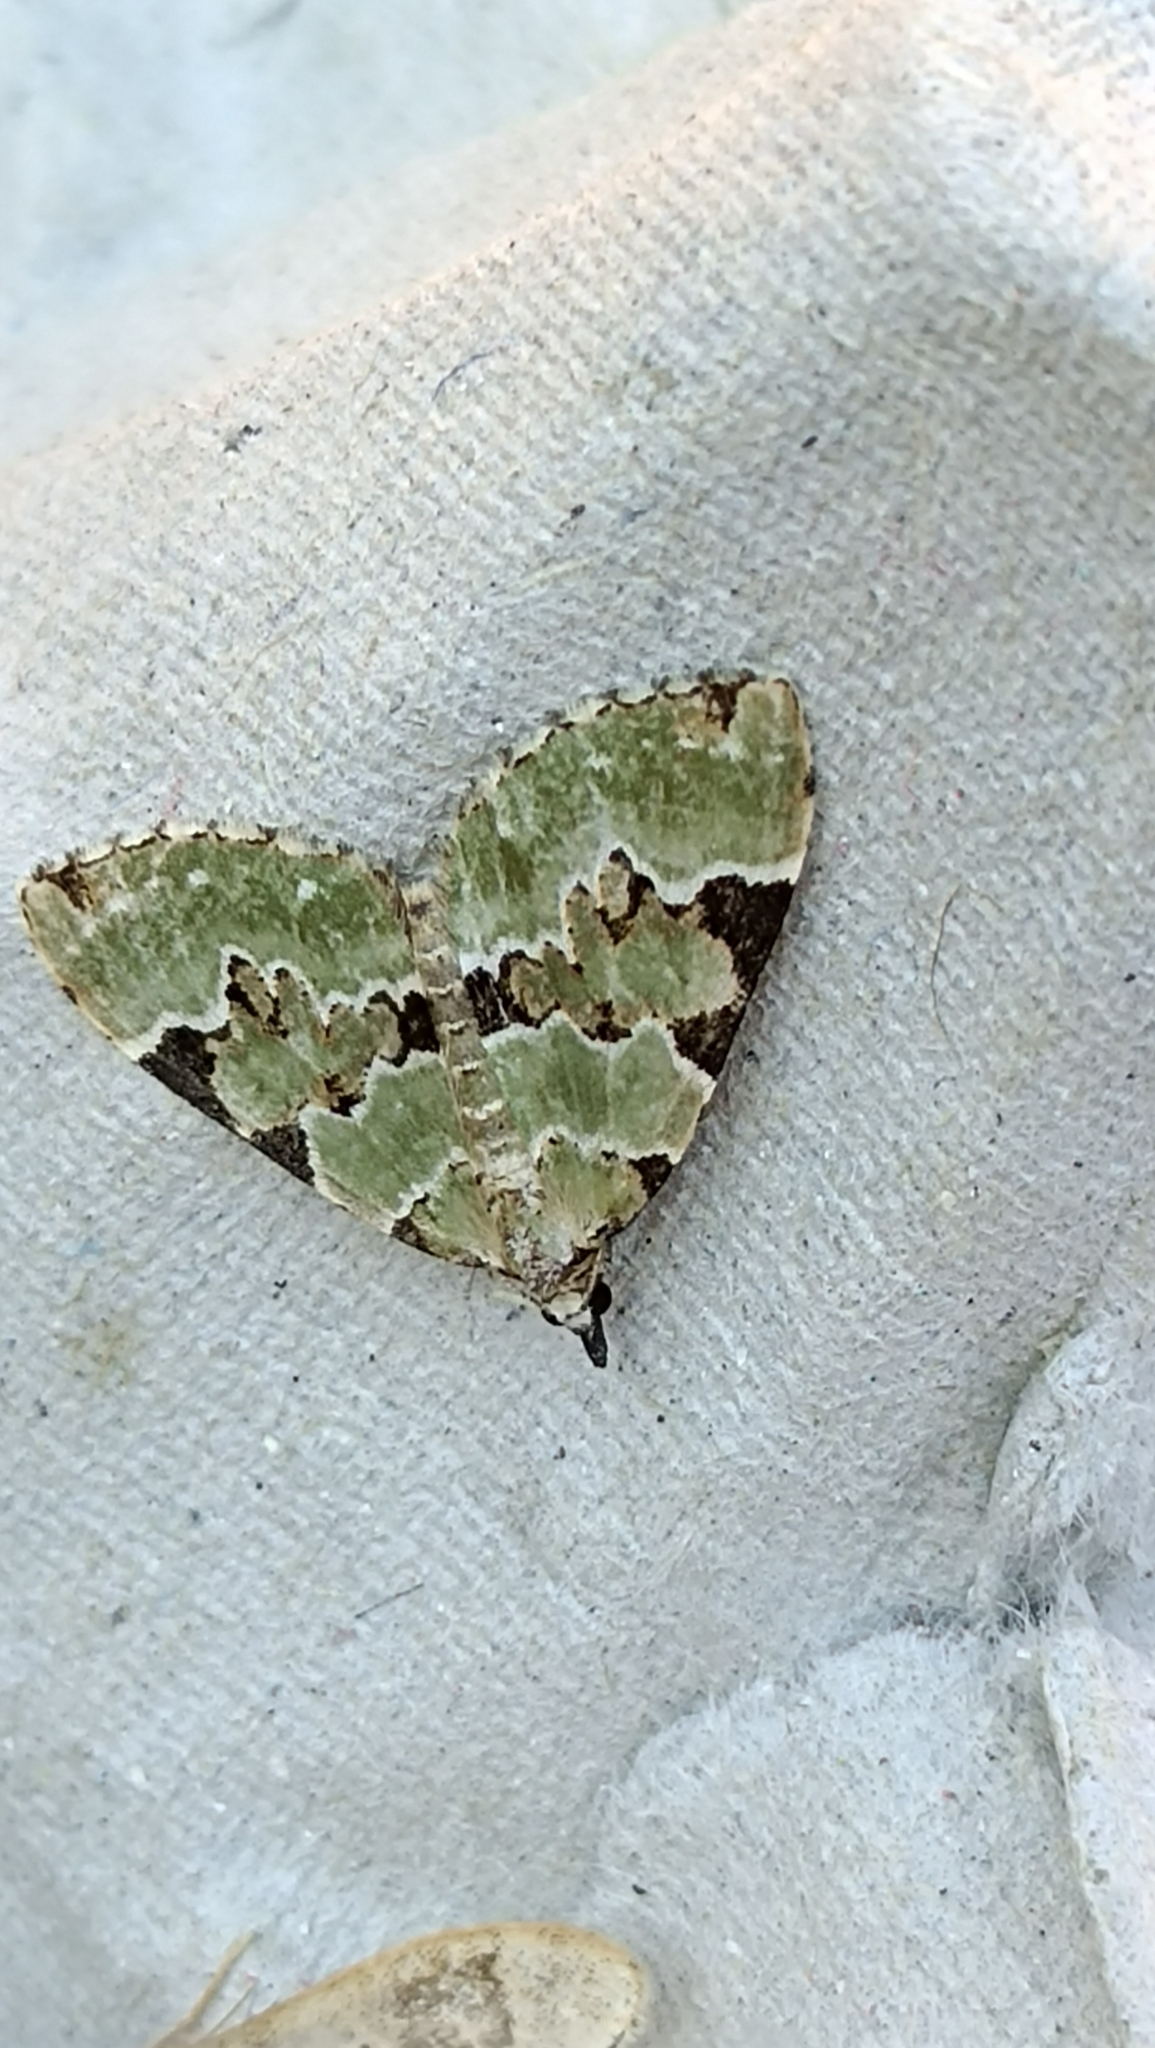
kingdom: Animalia
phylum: Arthropoda
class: Insecta
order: Lepidoptera
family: Geometridae
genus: Colostygia
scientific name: Colostygia pectinataria
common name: Green carpet
